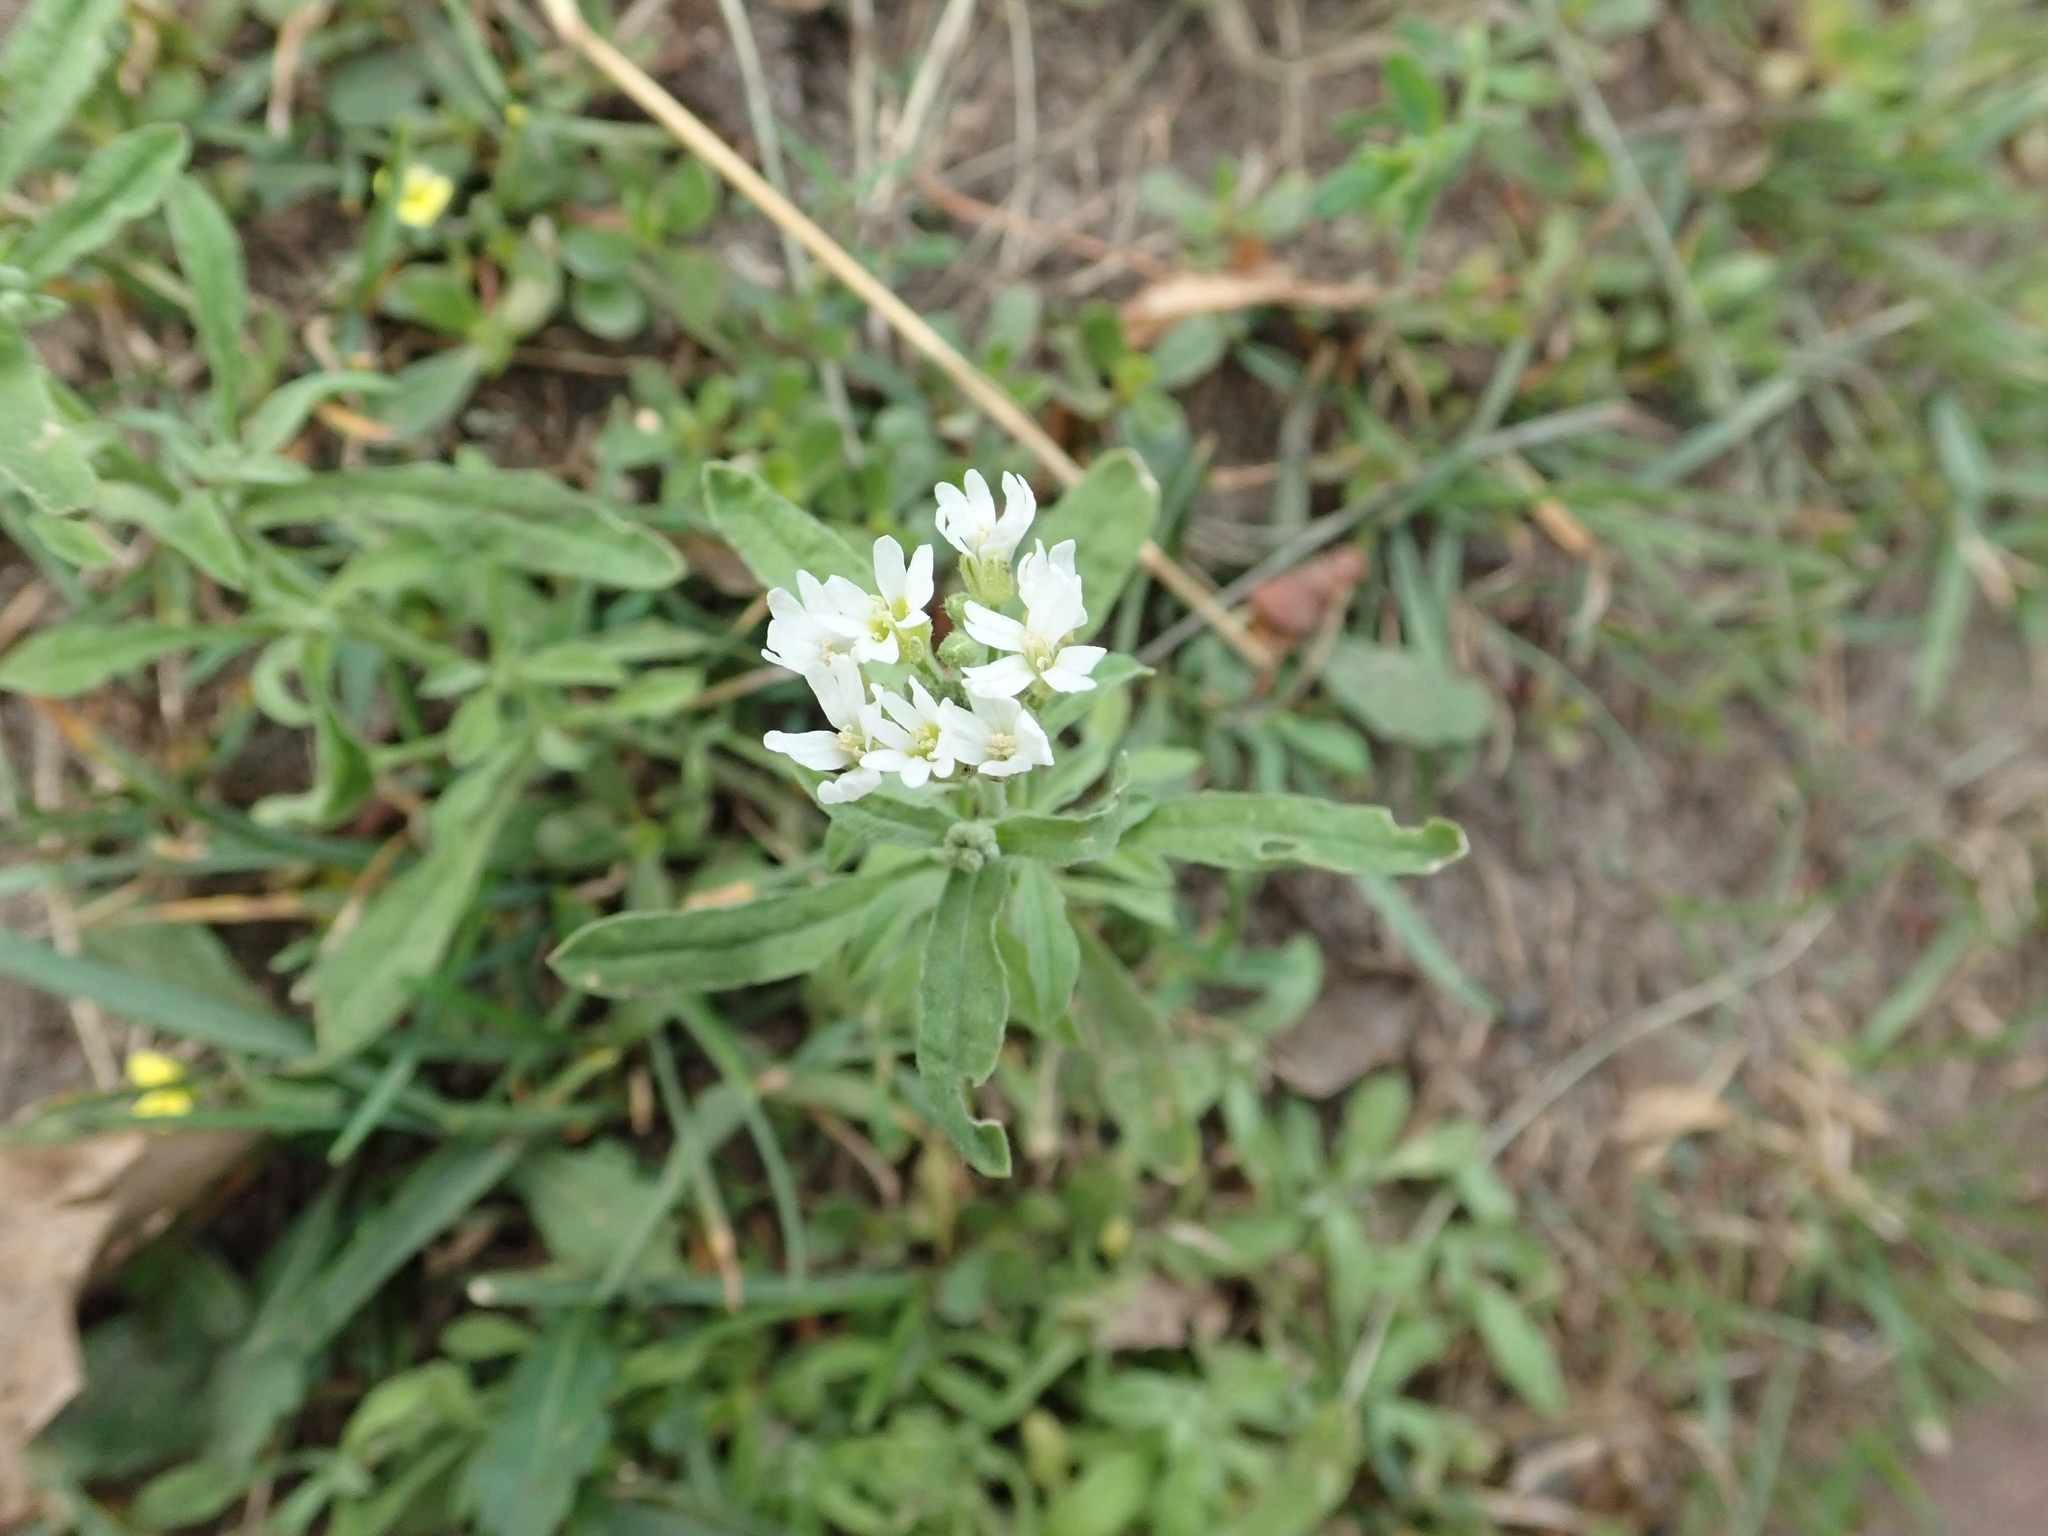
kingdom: Plantae
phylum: Tracheophyta
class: Magnoliopsida
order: Brassicales
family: Brassicaceae
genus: Berteroa
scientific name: Berteroa incana
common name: Hoary alison
